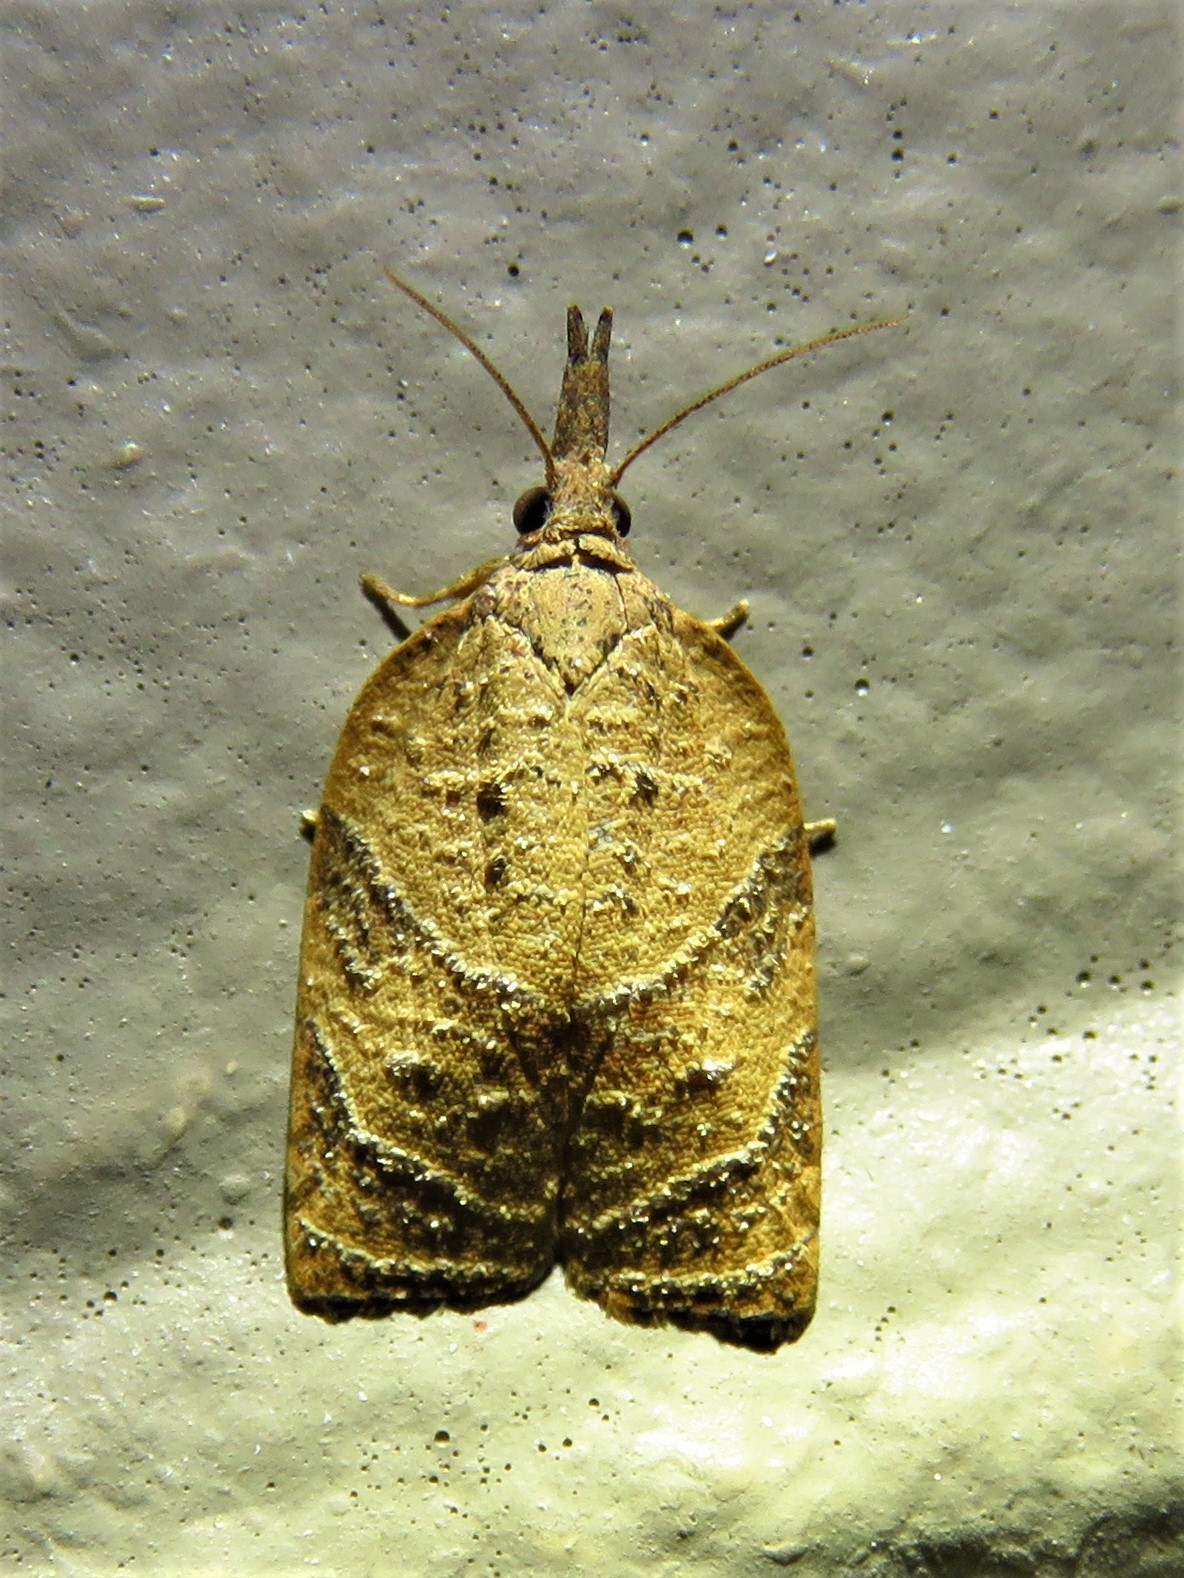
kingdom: Animalia
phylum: Arthropoda
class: Insecta
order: Lepidoptera
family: Tortricidae
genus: Platynota
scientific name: Platynota rostrana
